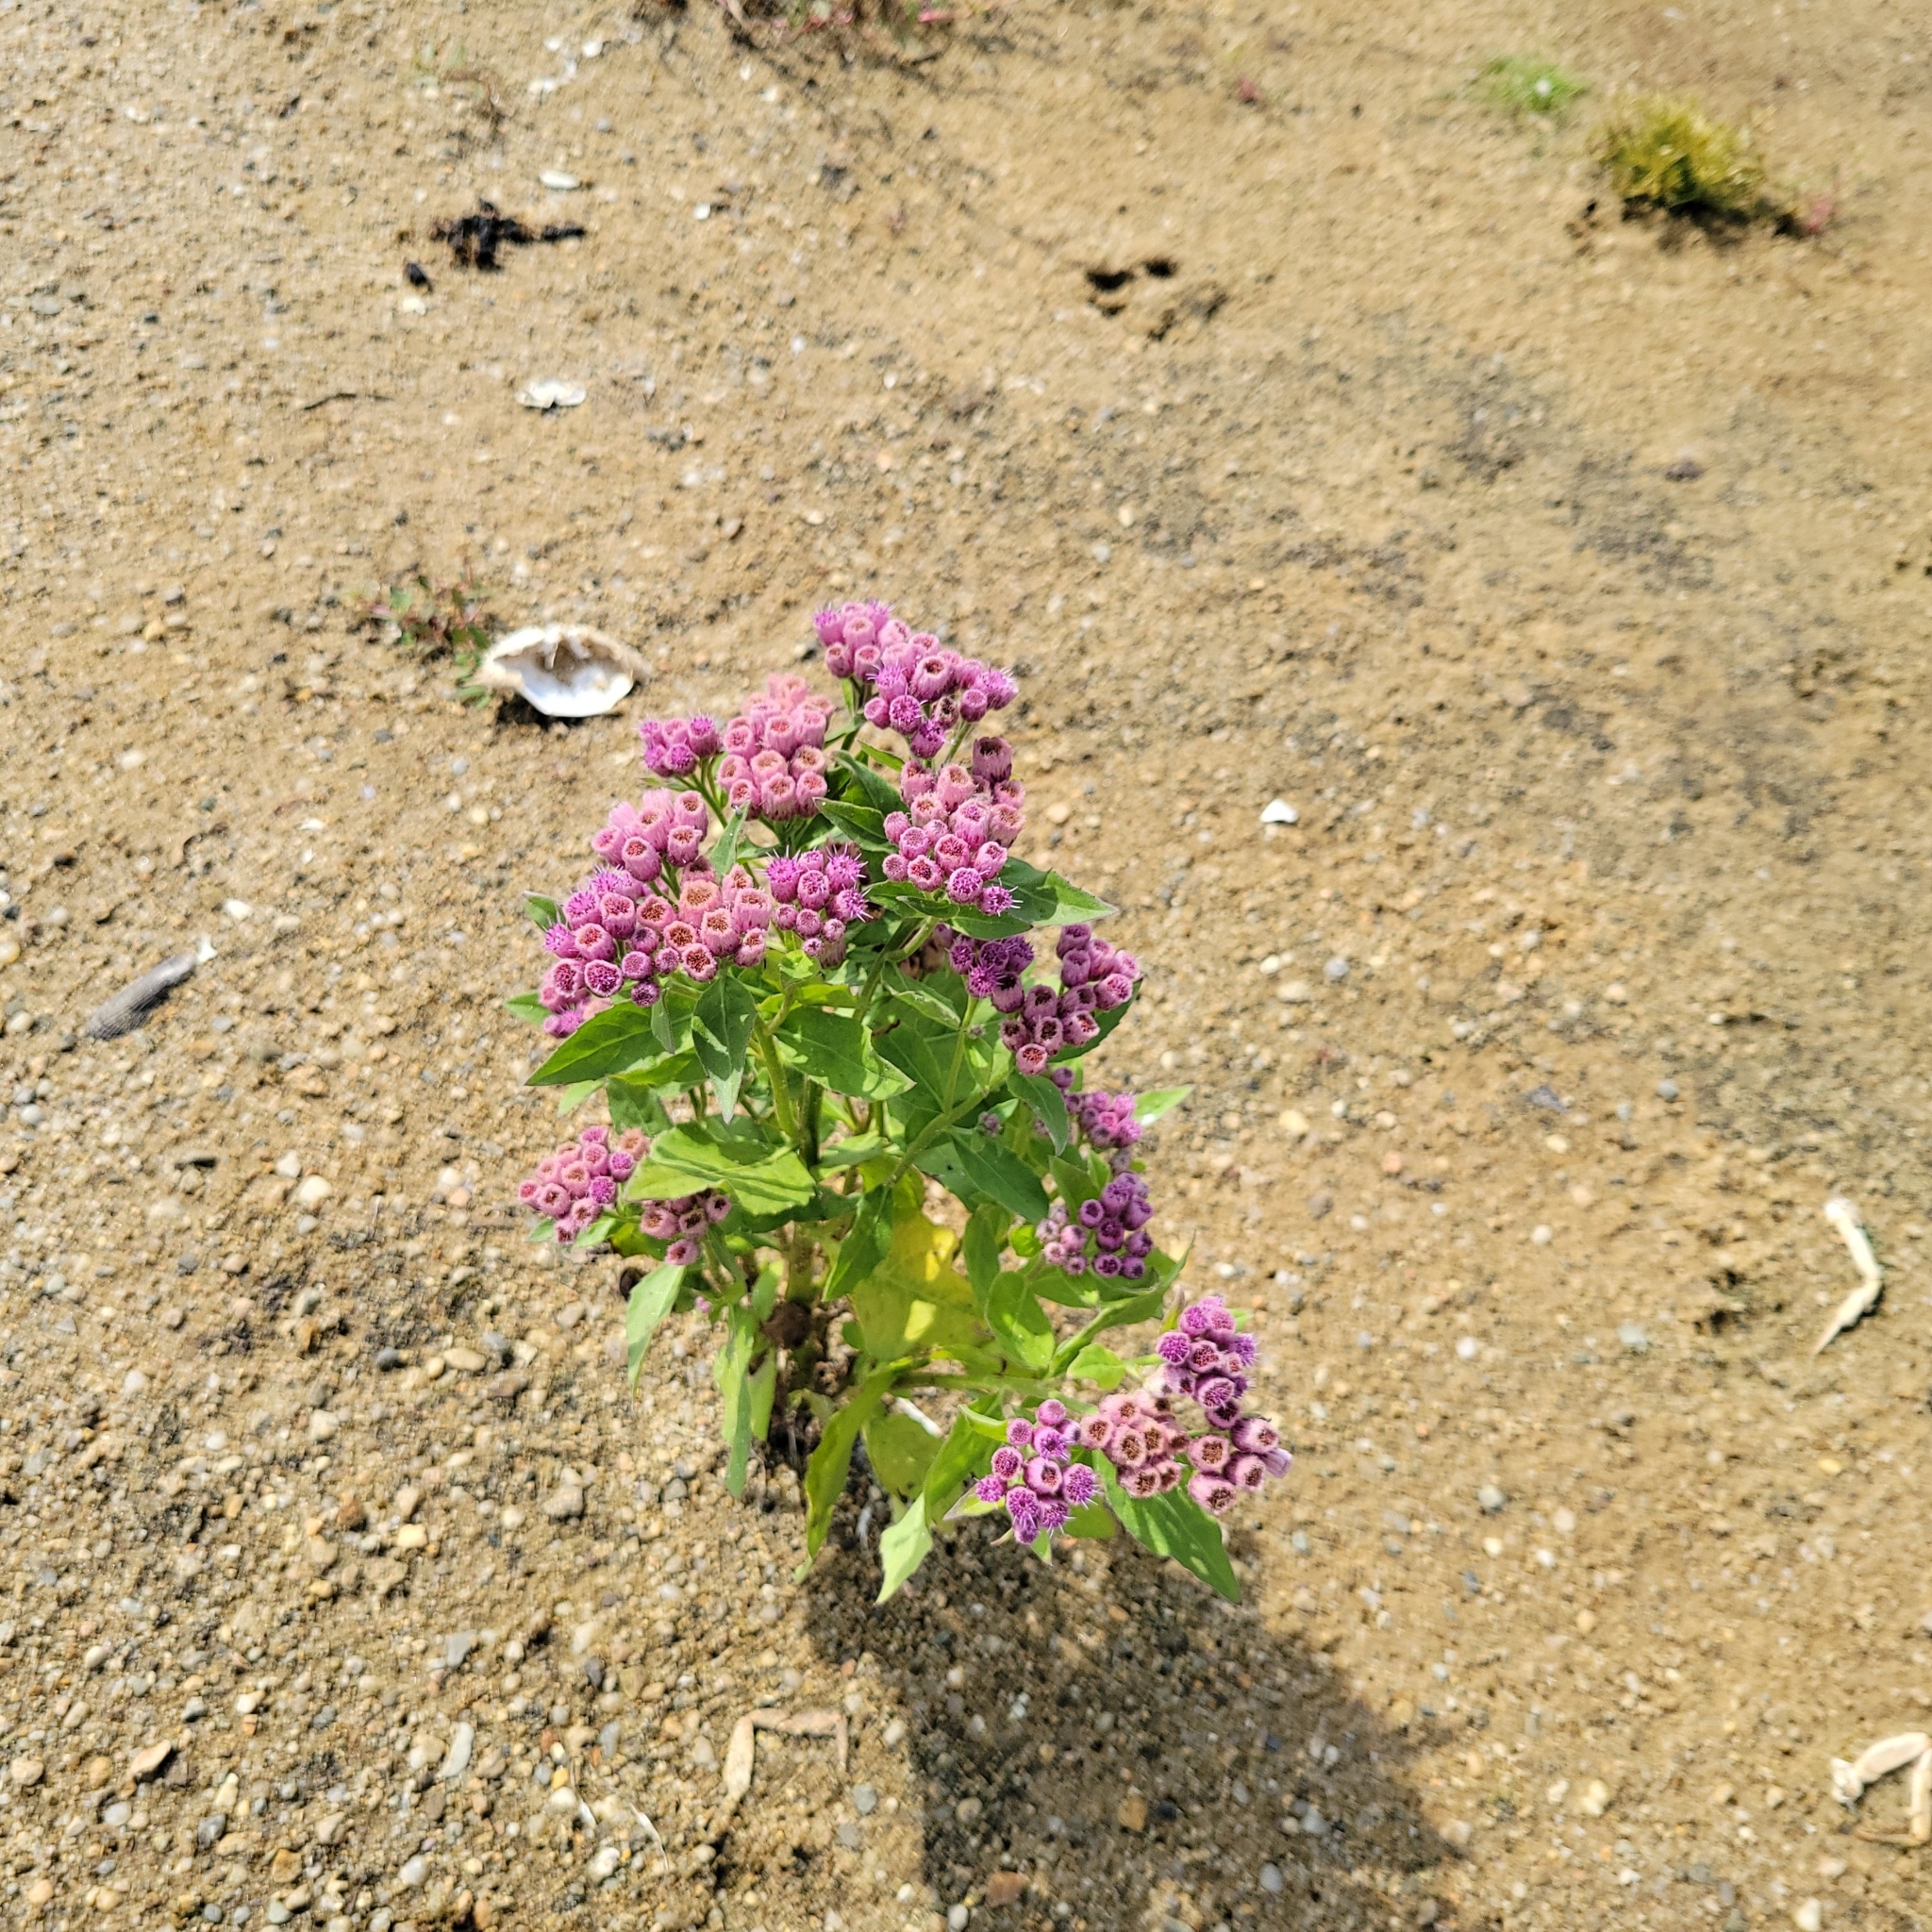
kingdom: Plantae
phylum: Tracheophyta
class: Magnoliopsida
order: Asterales
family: Asteraceae
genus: Pluchea
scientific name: Pluchea odorata
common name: Saltmarsh fleabane
